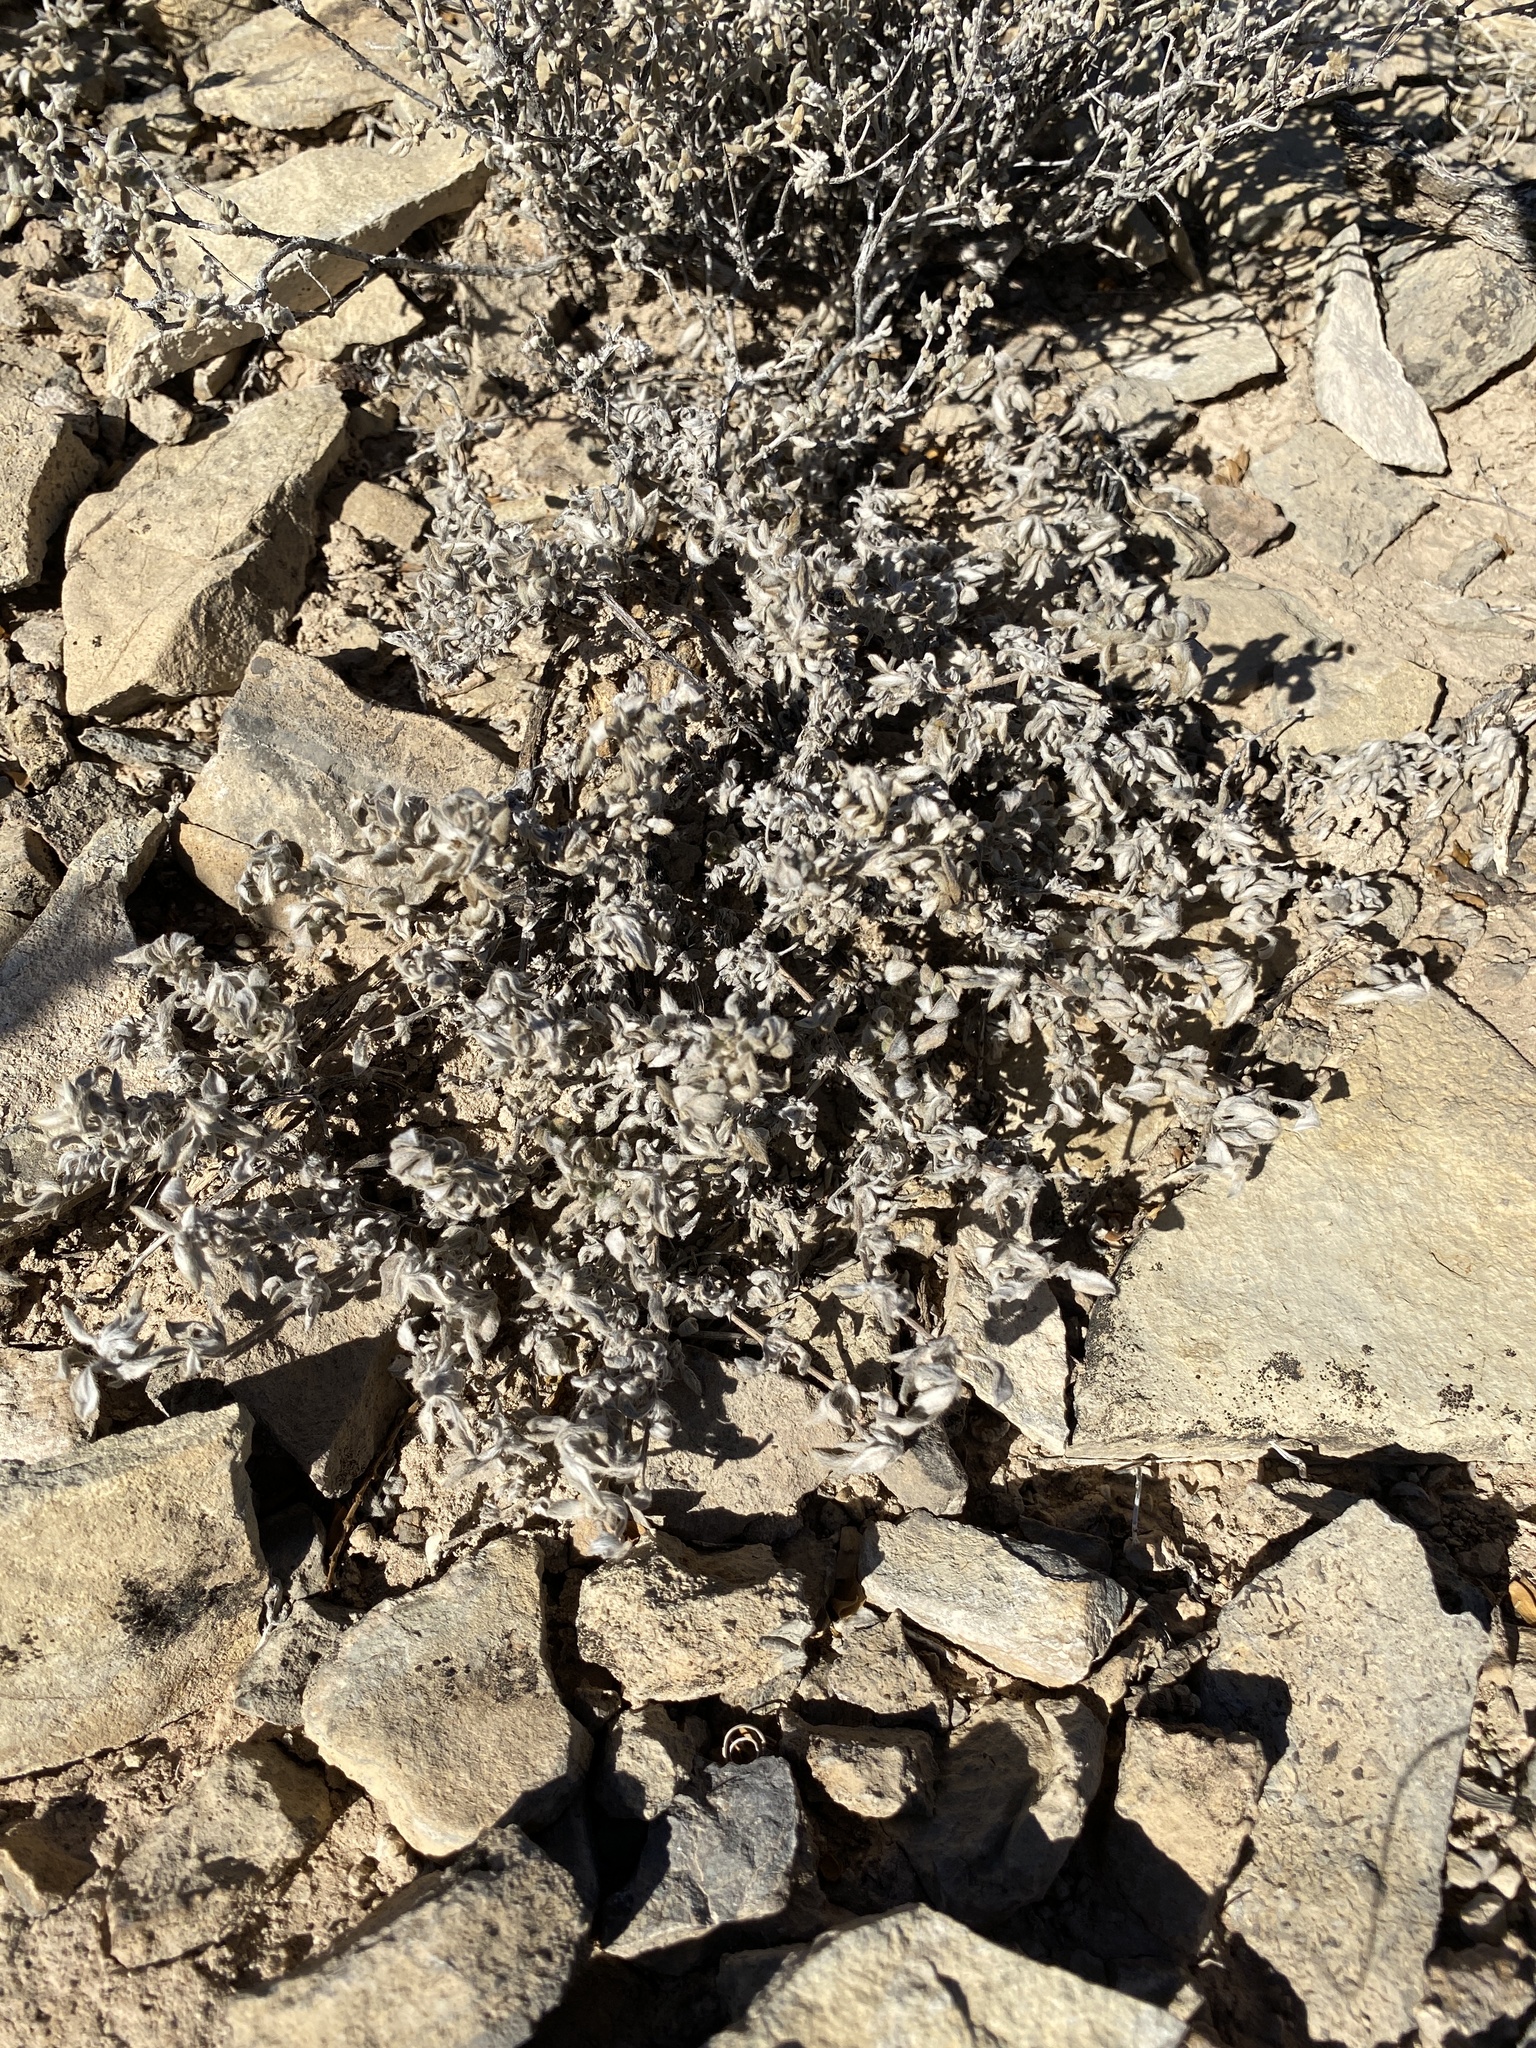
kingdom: Plantae
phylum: Tracheophyta
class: Magnoliopsida
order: Boraginales
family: Ehretiaceae
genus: Tiquilia
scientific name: Tiquilia canescens
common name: Hairy tiquilia
